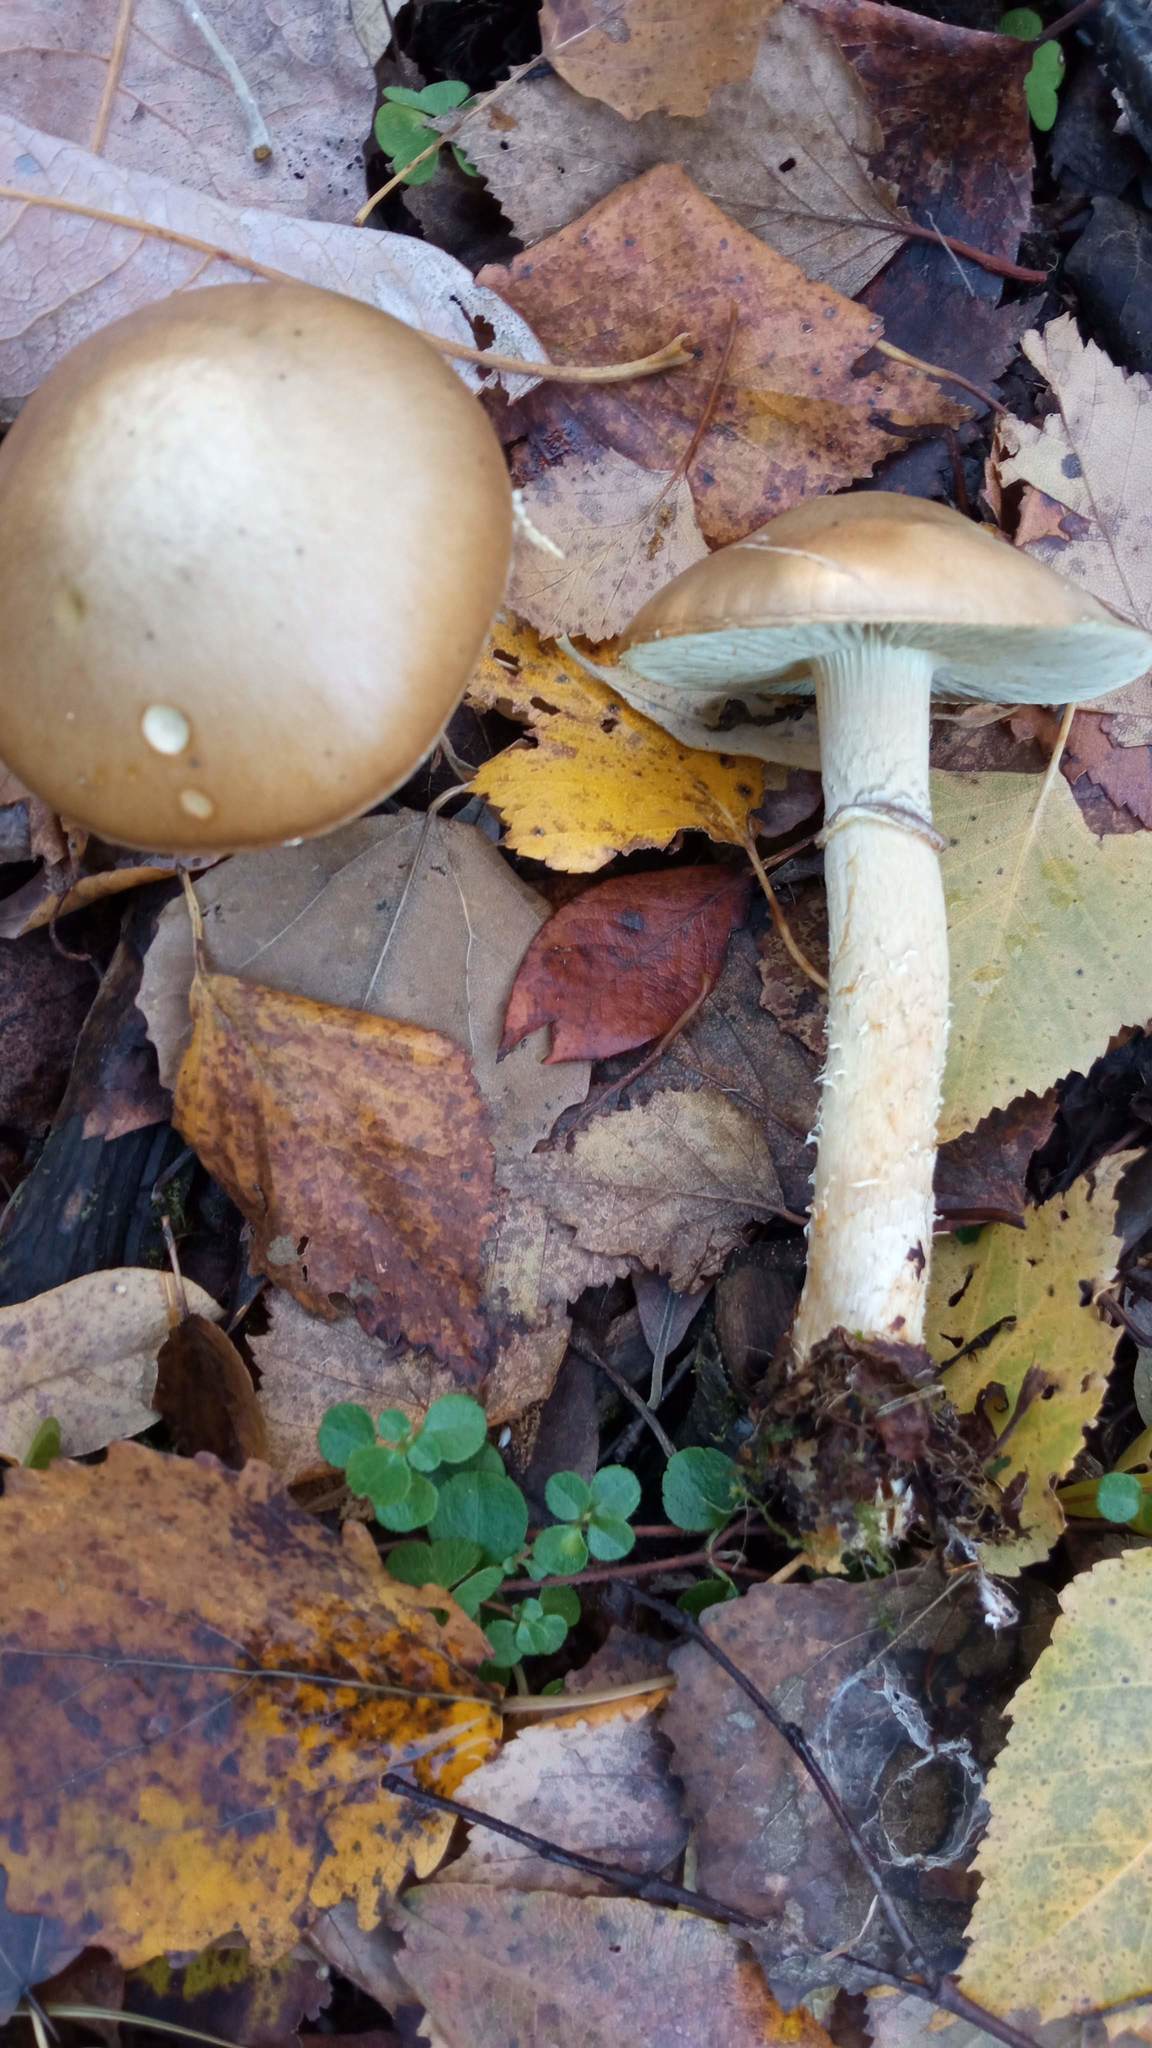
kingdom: Fungi
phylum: Basidiomycota
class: Agaricomycetes
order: Agaricales
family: Strophariaceae
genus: Stropharia
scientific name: Stropharia hornemannii
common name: Conifer roundhead
